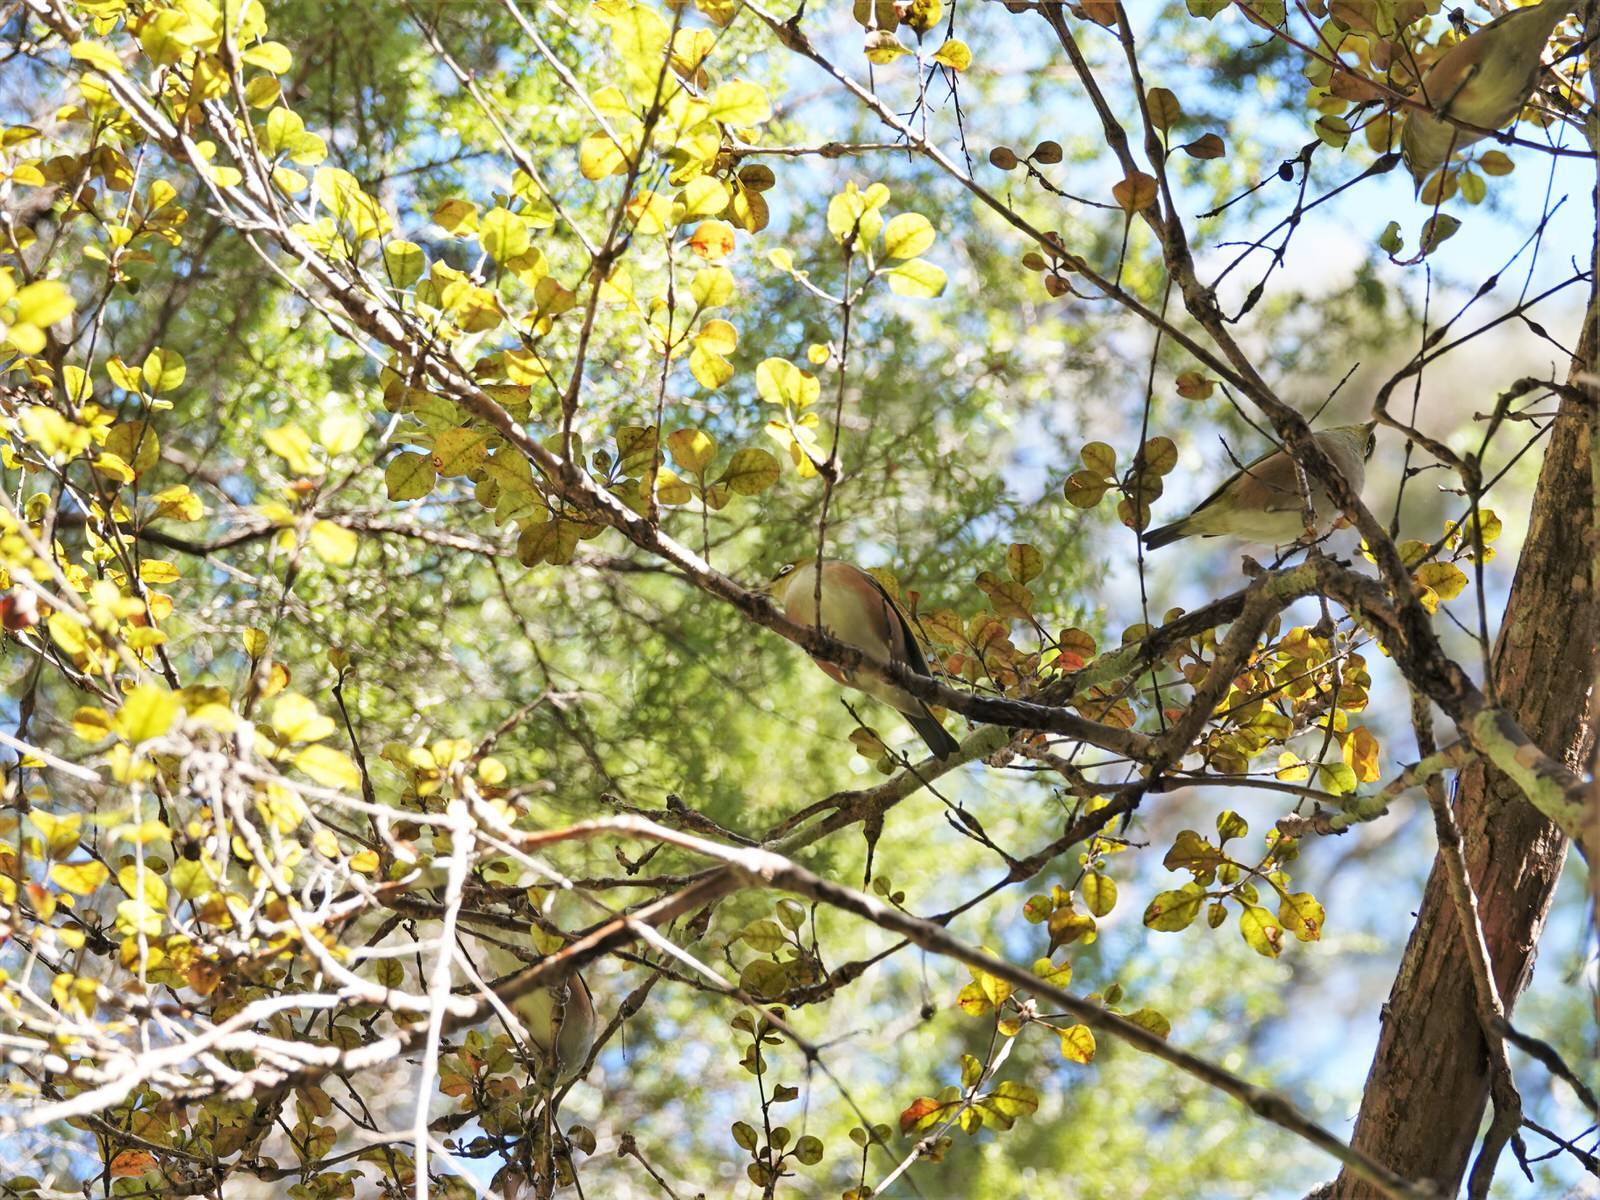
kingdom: Animalia
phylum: Chordata
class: Aves
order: Passeriformes
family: Zosteropidae
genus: Zosterops
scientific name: Zosterops lateralis
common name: Silvereye
